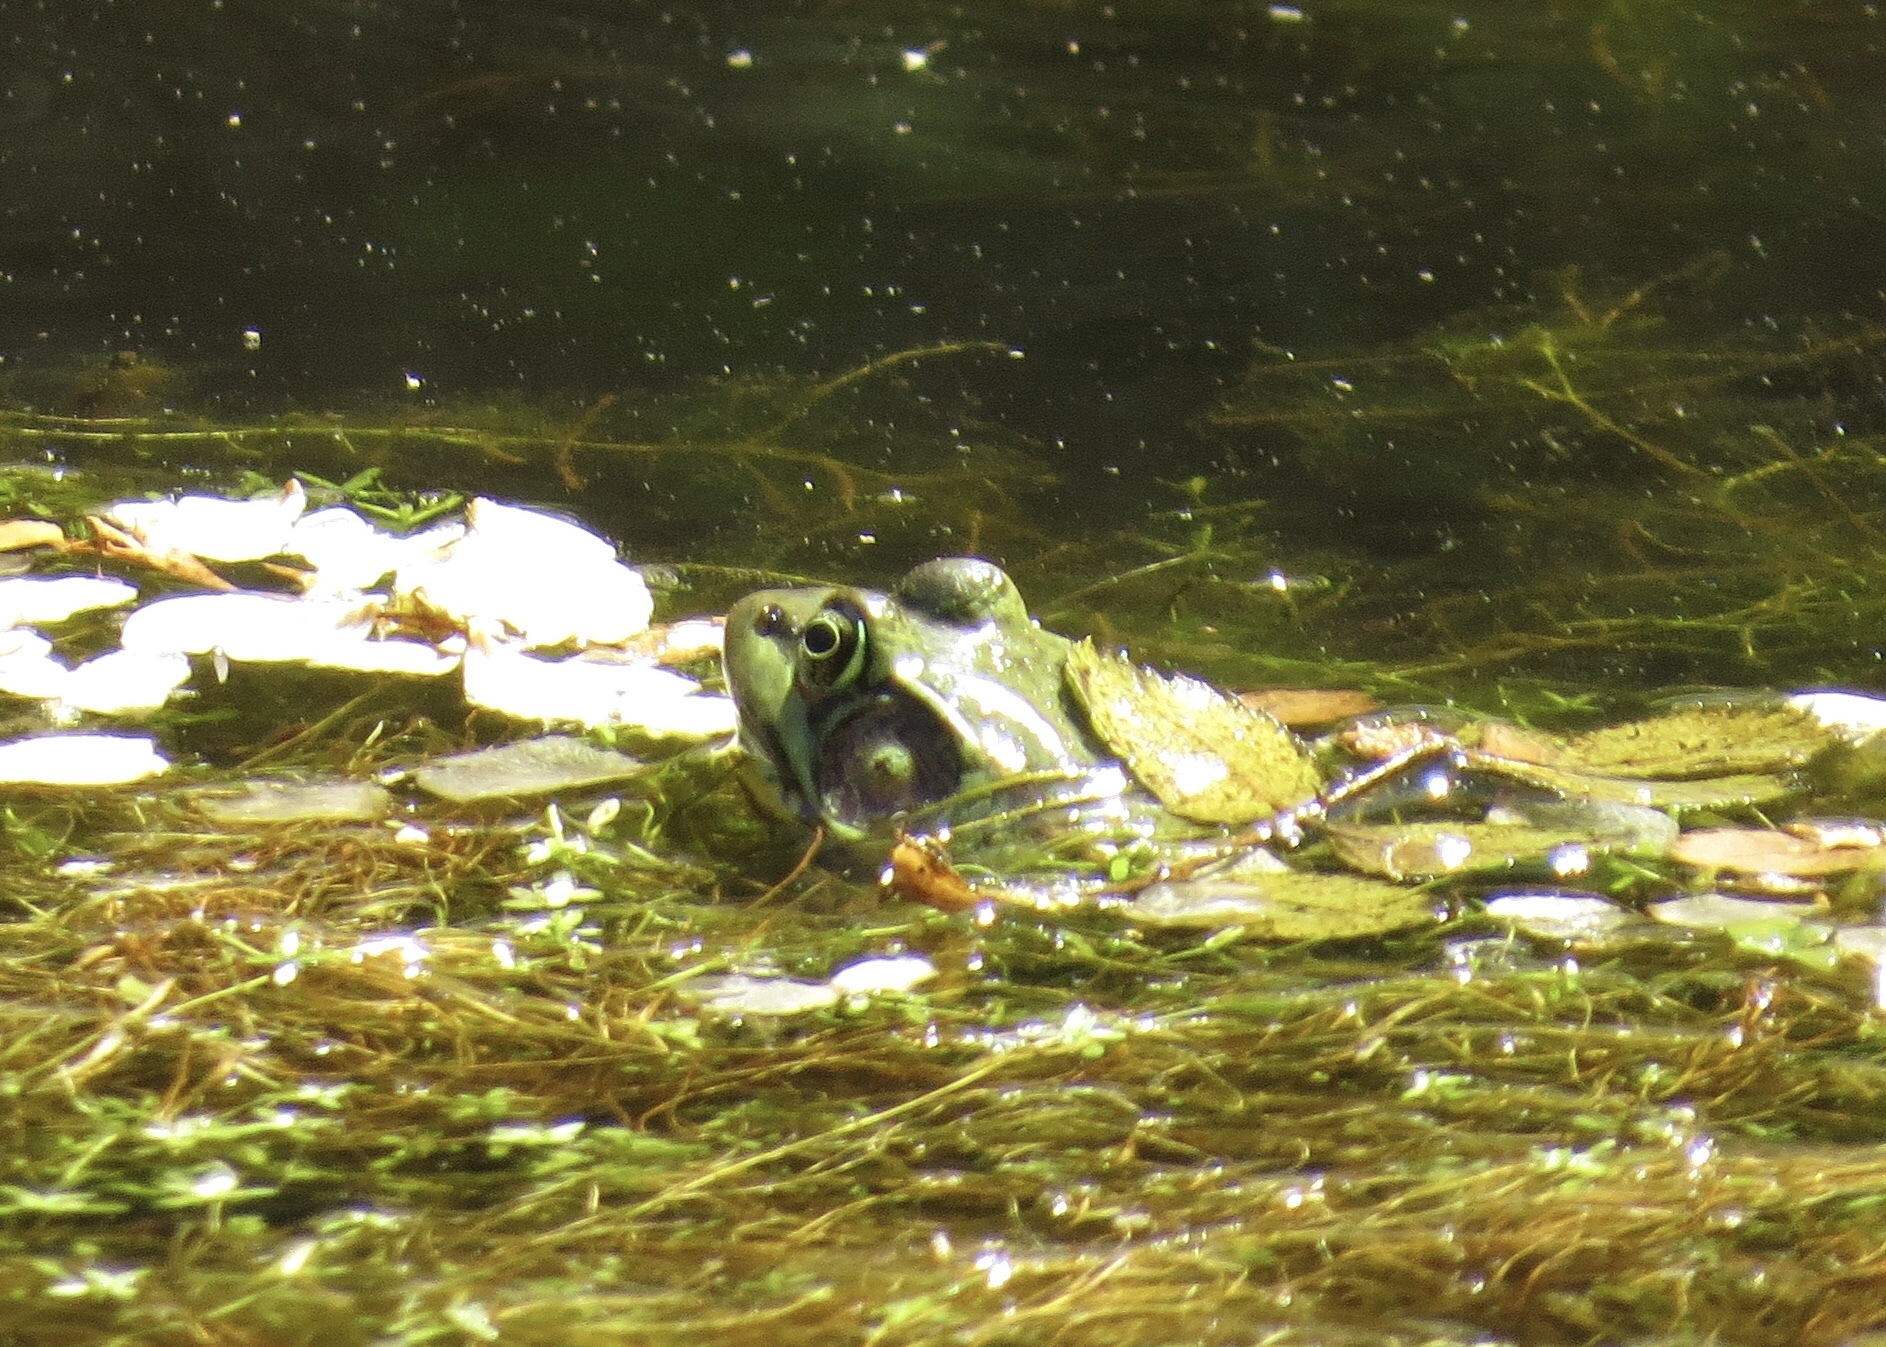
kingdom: Animalia
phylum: Chordata
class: Amphibia
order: Anura
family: Ranidae
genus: Lithobates
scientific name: Lithobates clamitans
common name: Green frog
